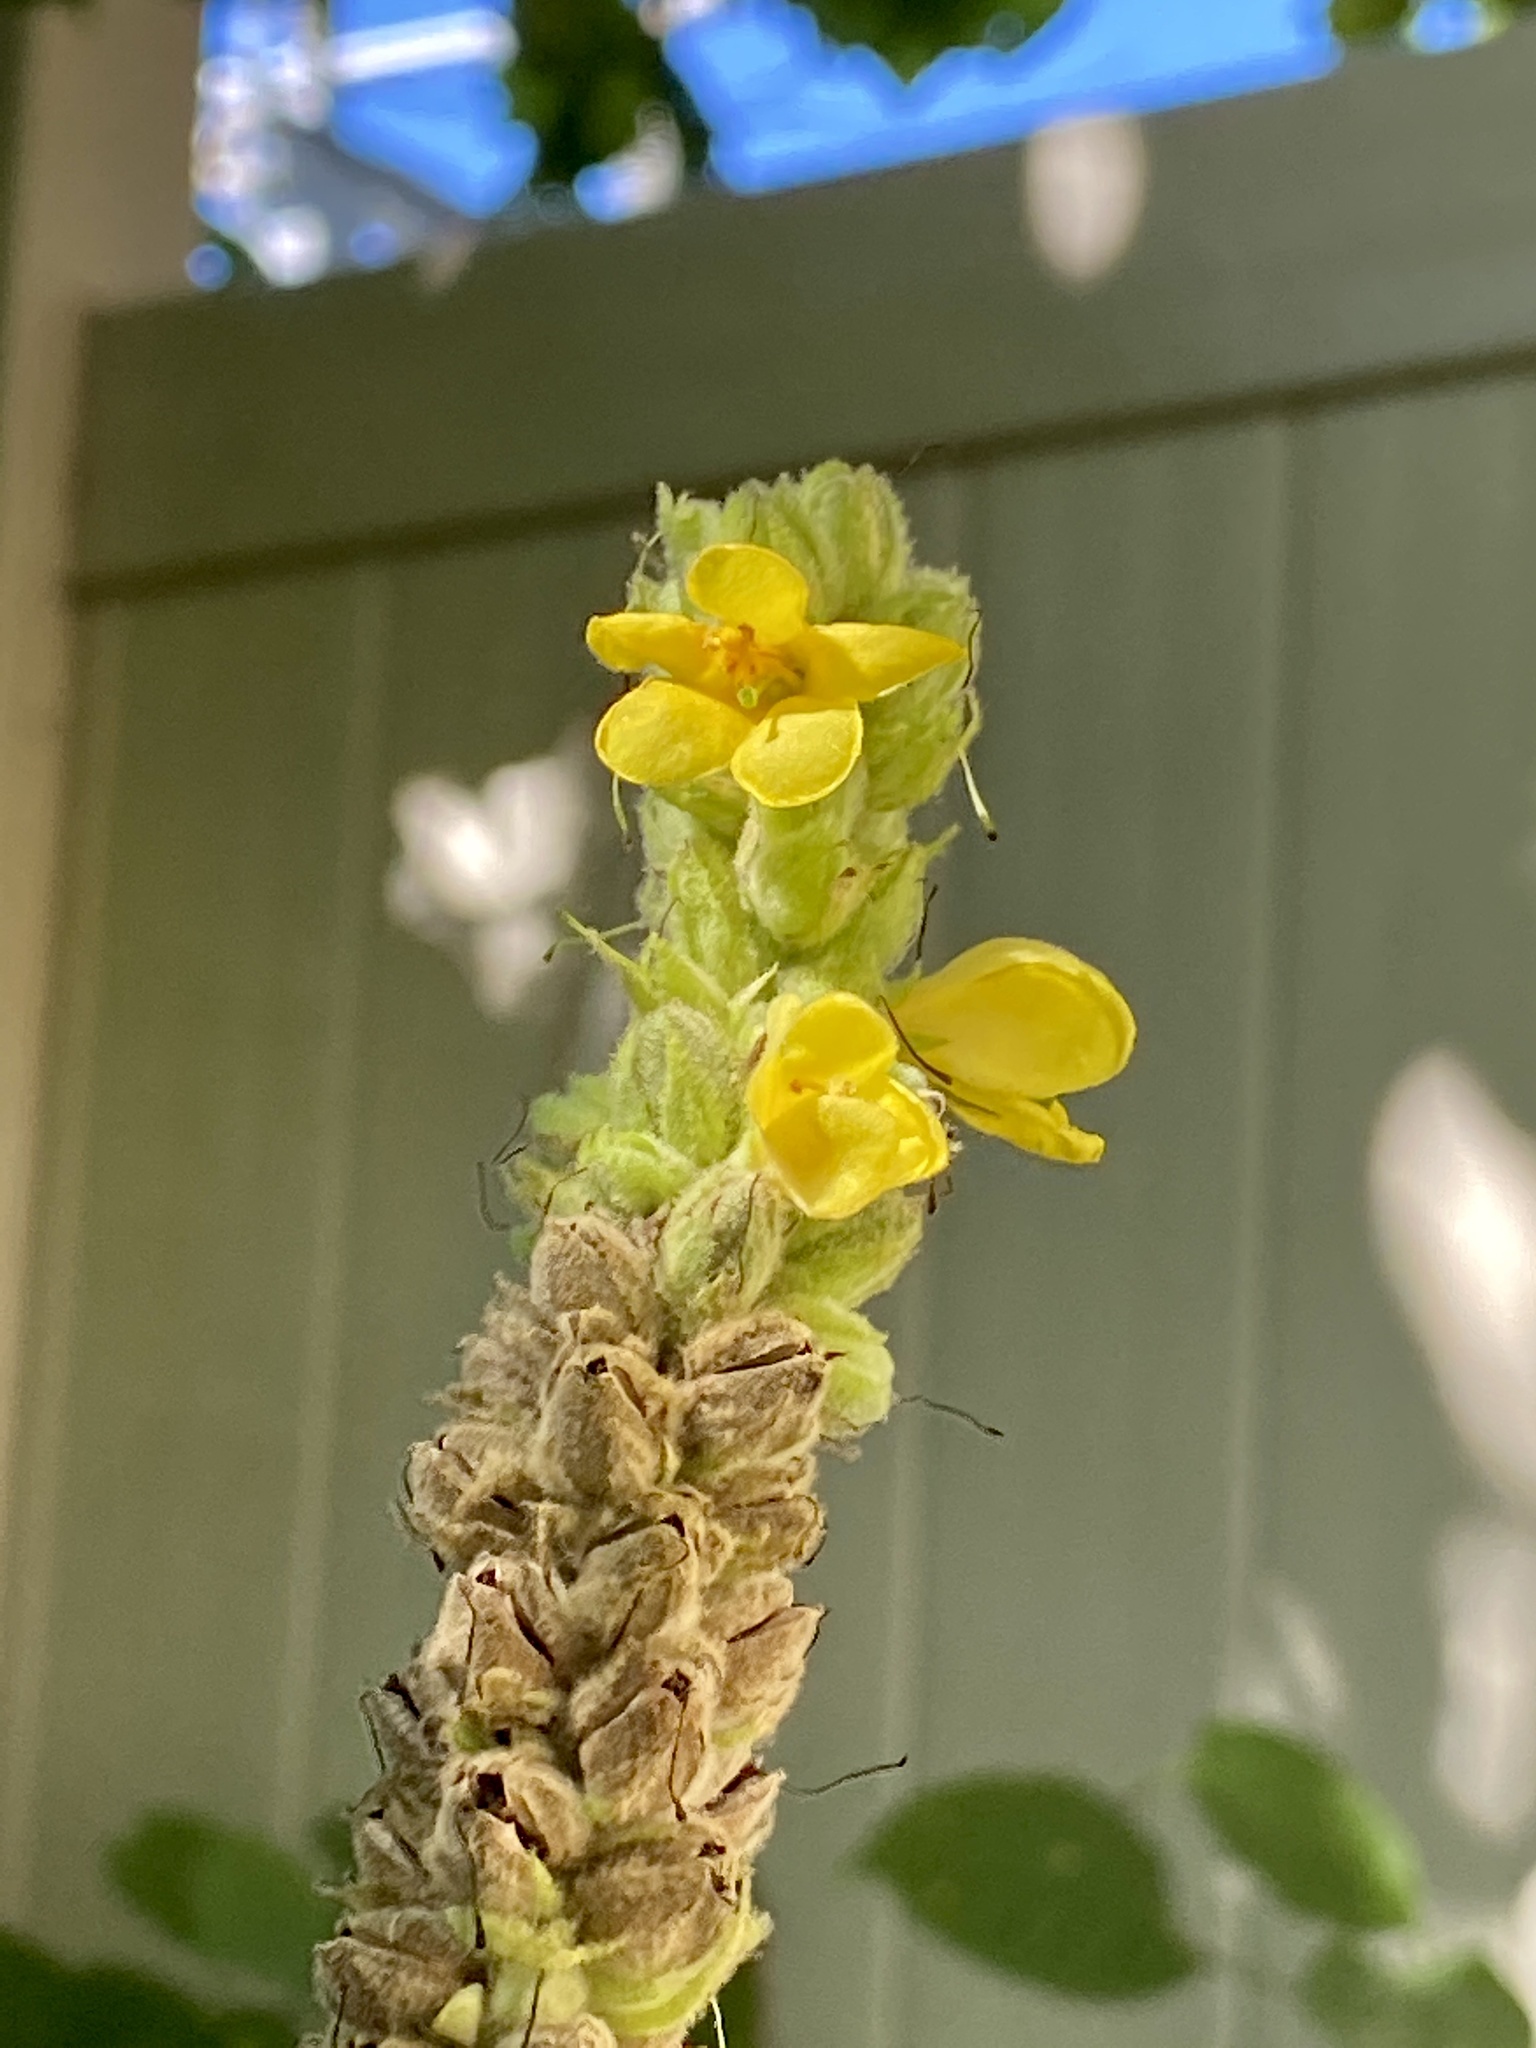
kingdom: Plantae
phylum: Tracheophyta
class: Magnoliopsida
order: Lamiales
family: Scrophulariaceae
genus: Verbascum
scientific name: Verbascum thapsus
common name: Common mullein
